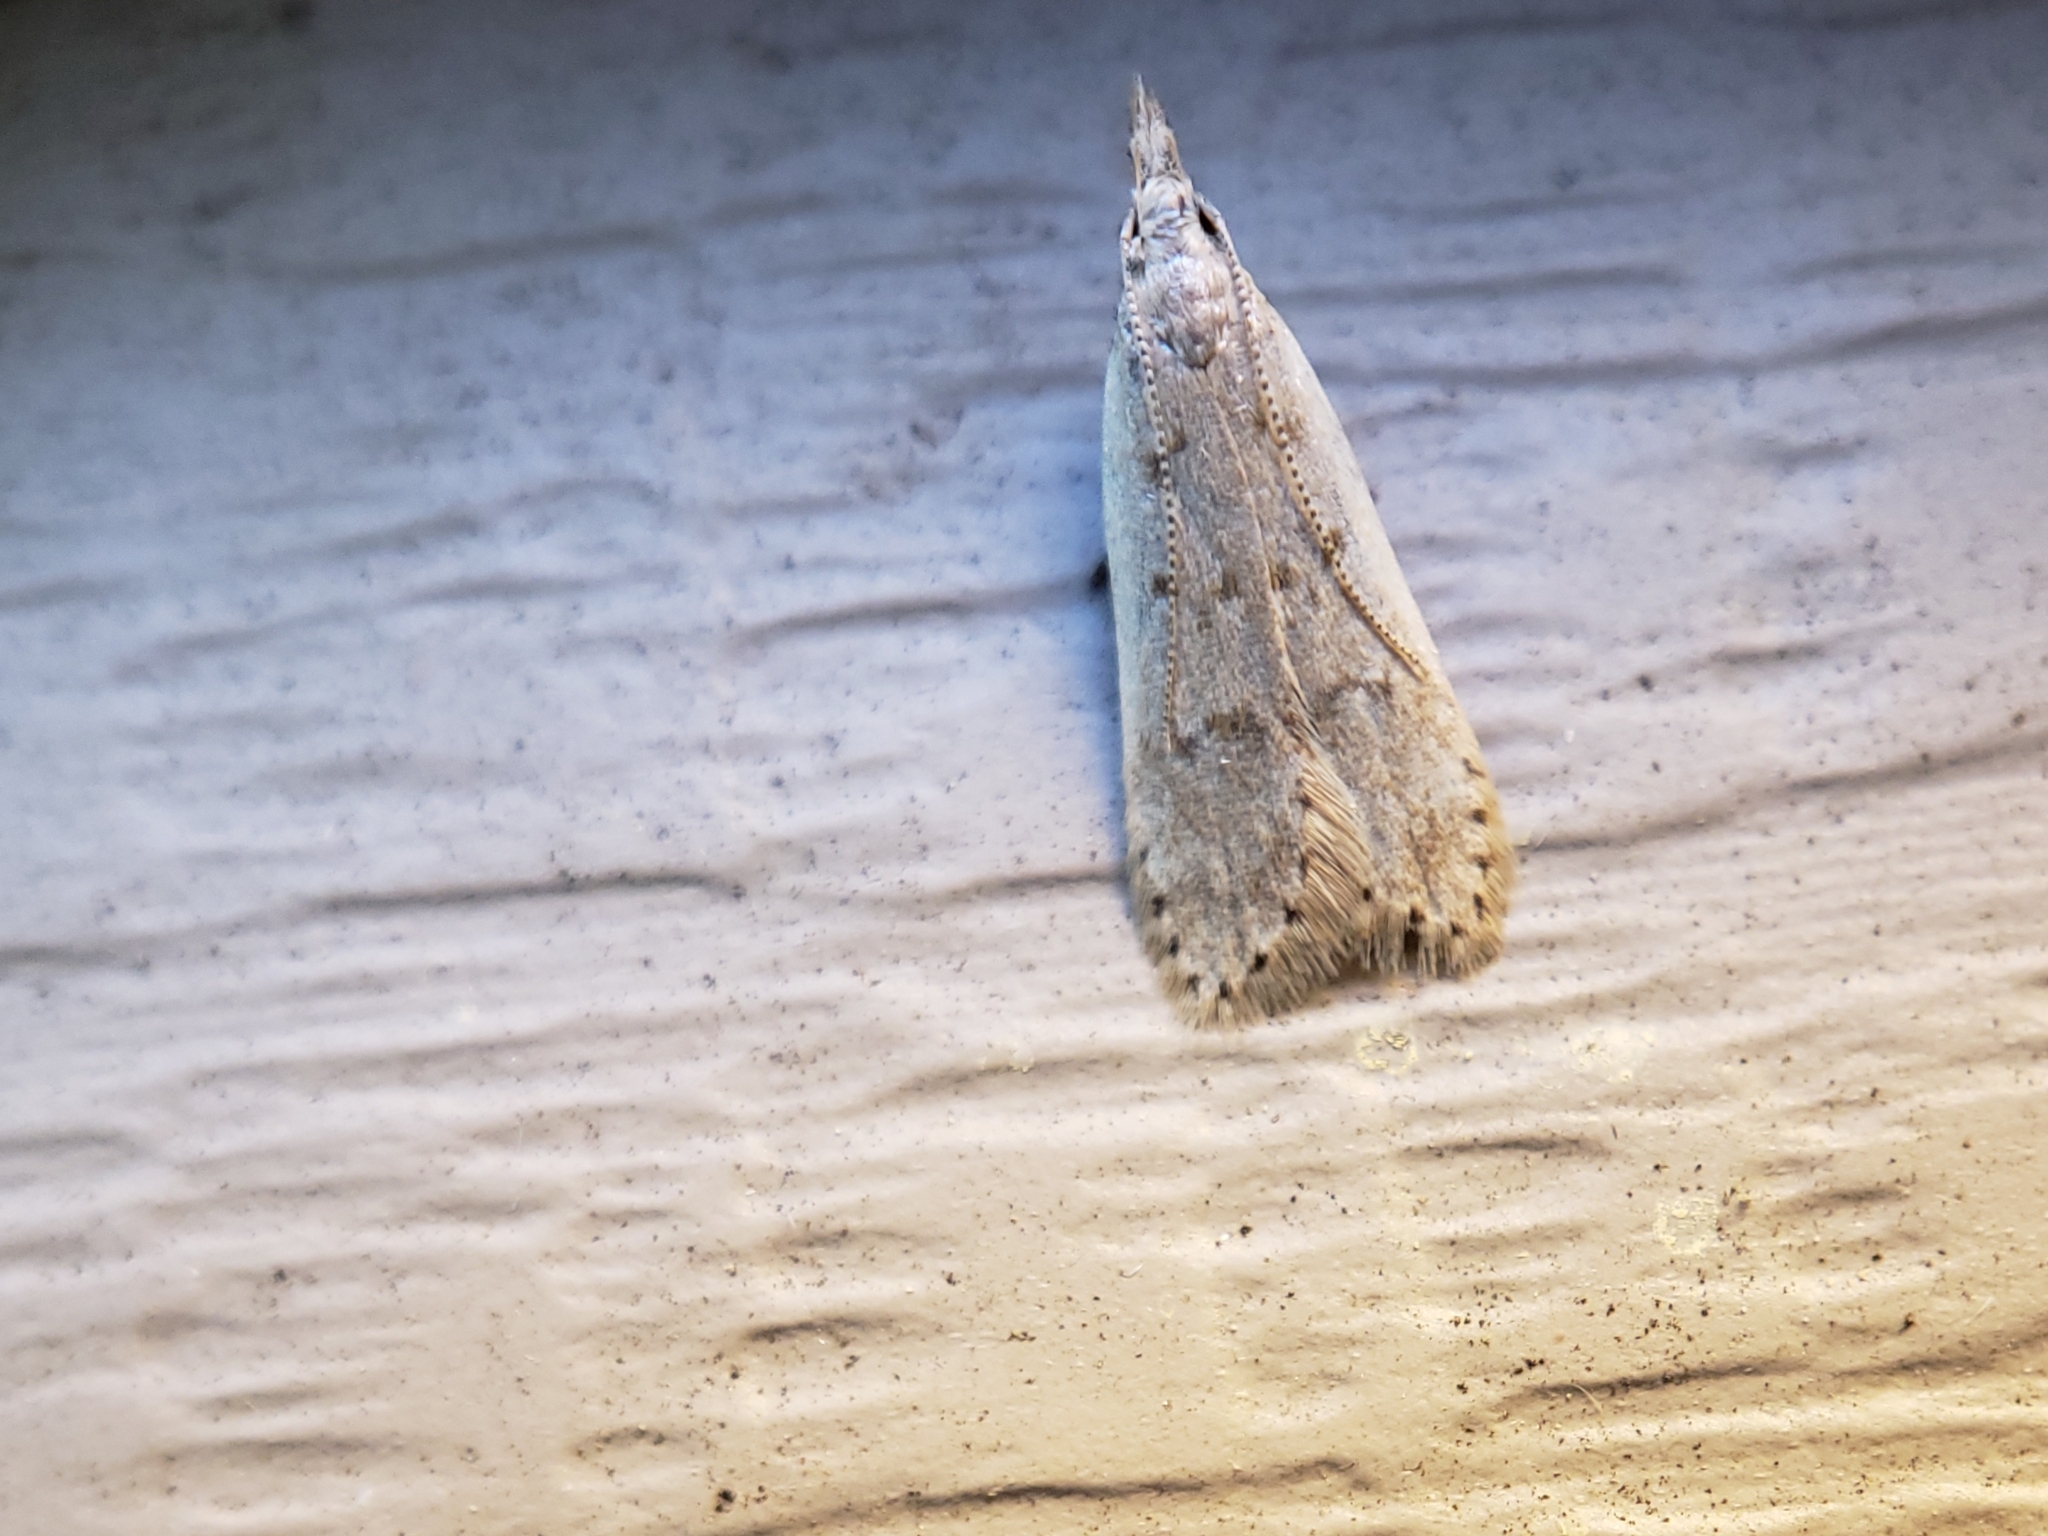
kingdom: Animalia
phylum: Arthropoda
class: Insecta
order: Lepidoptera
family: Gelechiidae
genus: Dichomeris
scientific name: Dichomeris punctidiscellus
